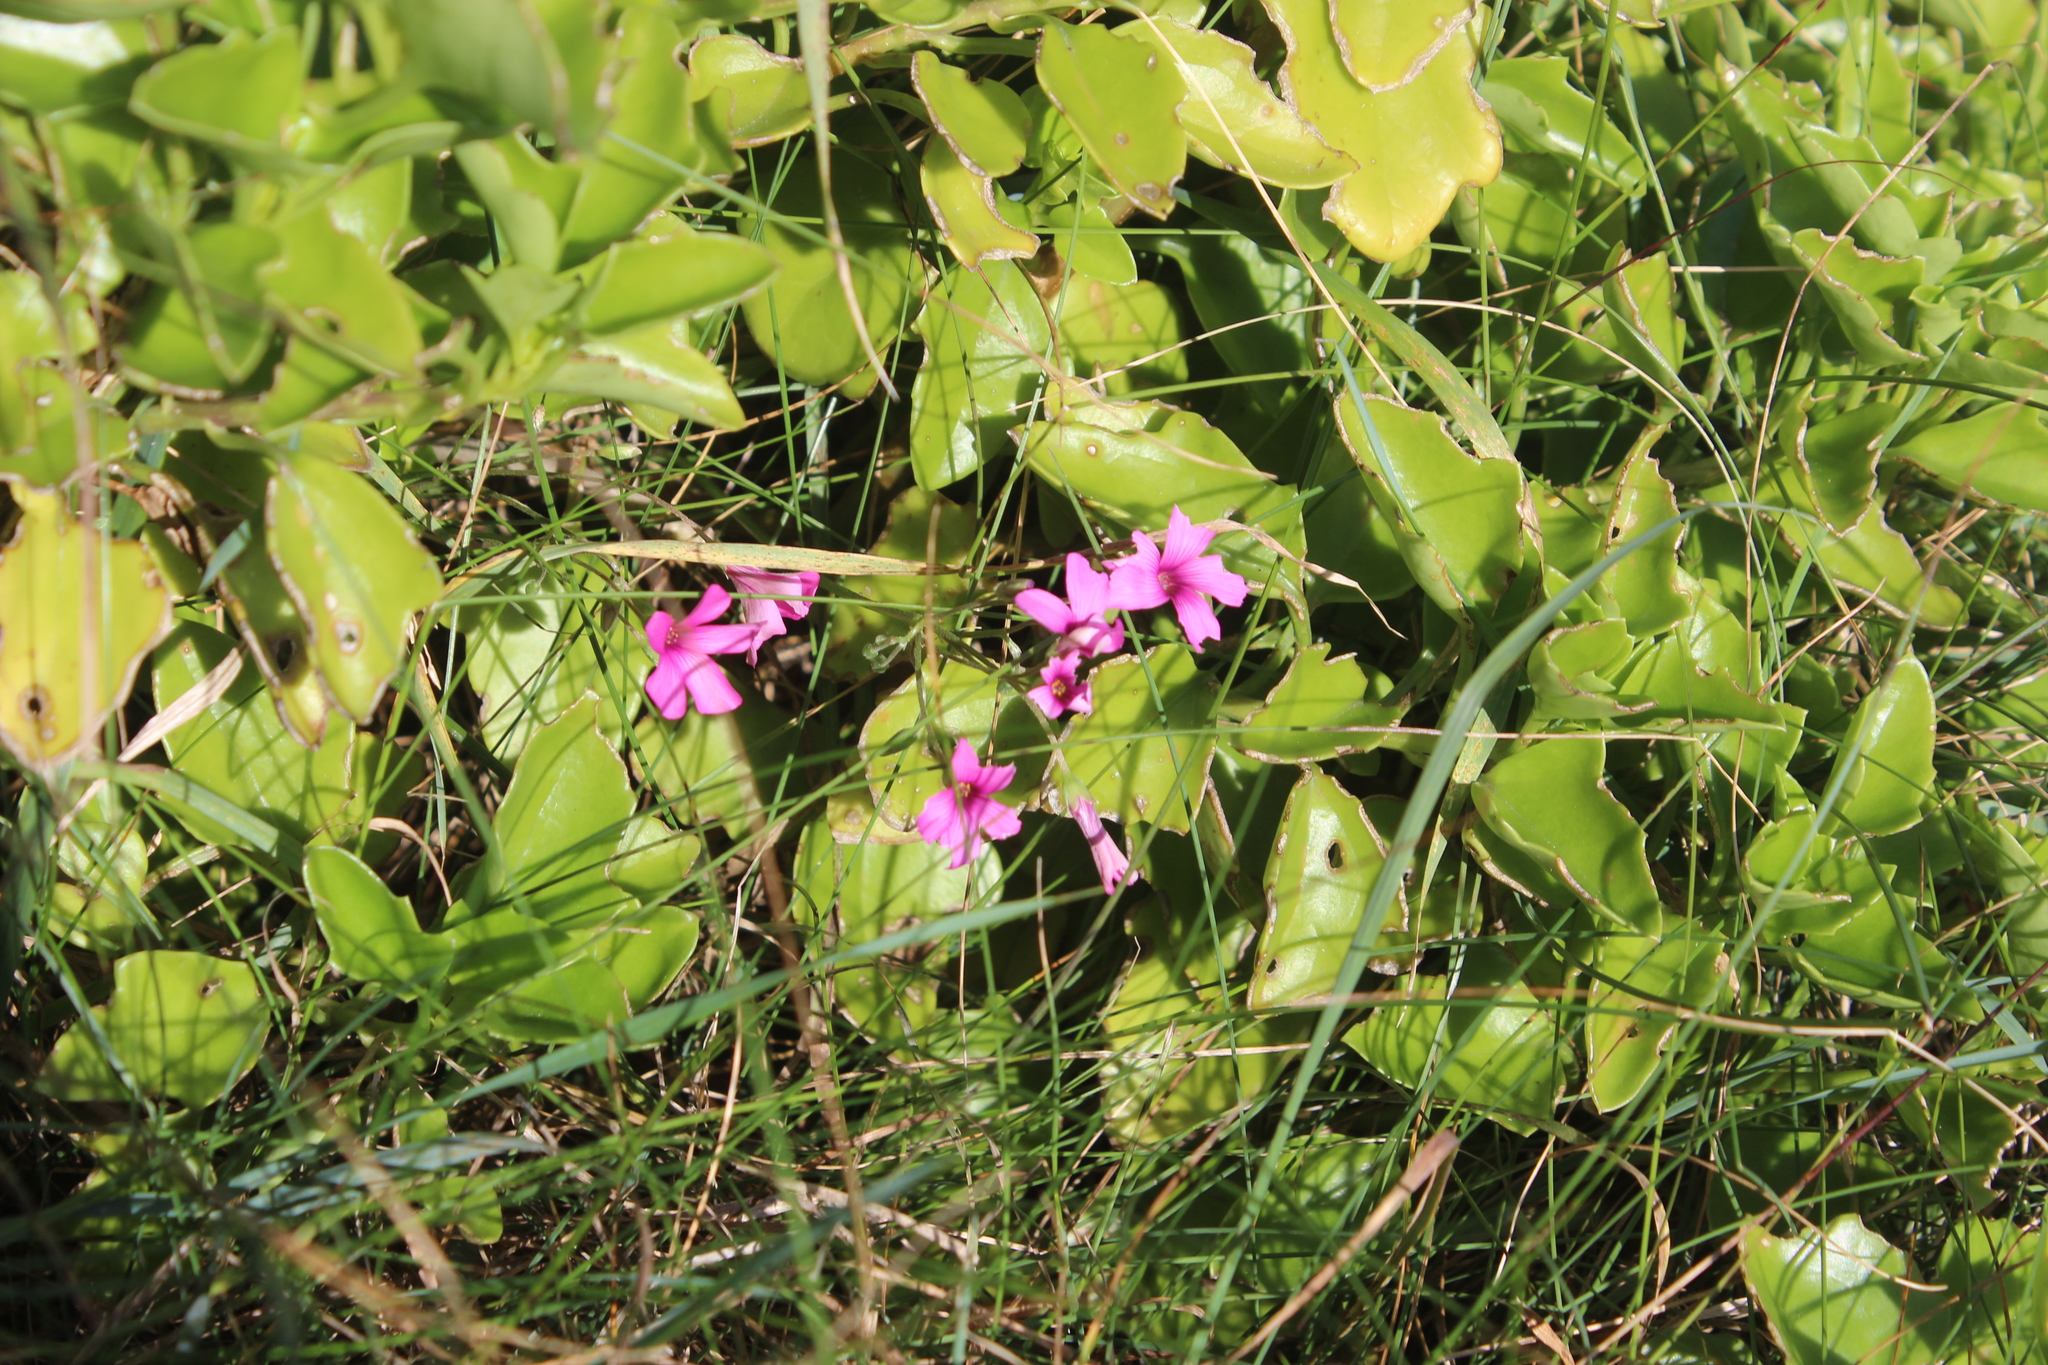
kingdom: Plantae
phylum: Tracheophyta
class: Magnoliopsida
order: Oxalidales
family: Oxalidaceae
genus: Oxalis
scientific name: Oxalis articulata
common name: Pink-sorrel
